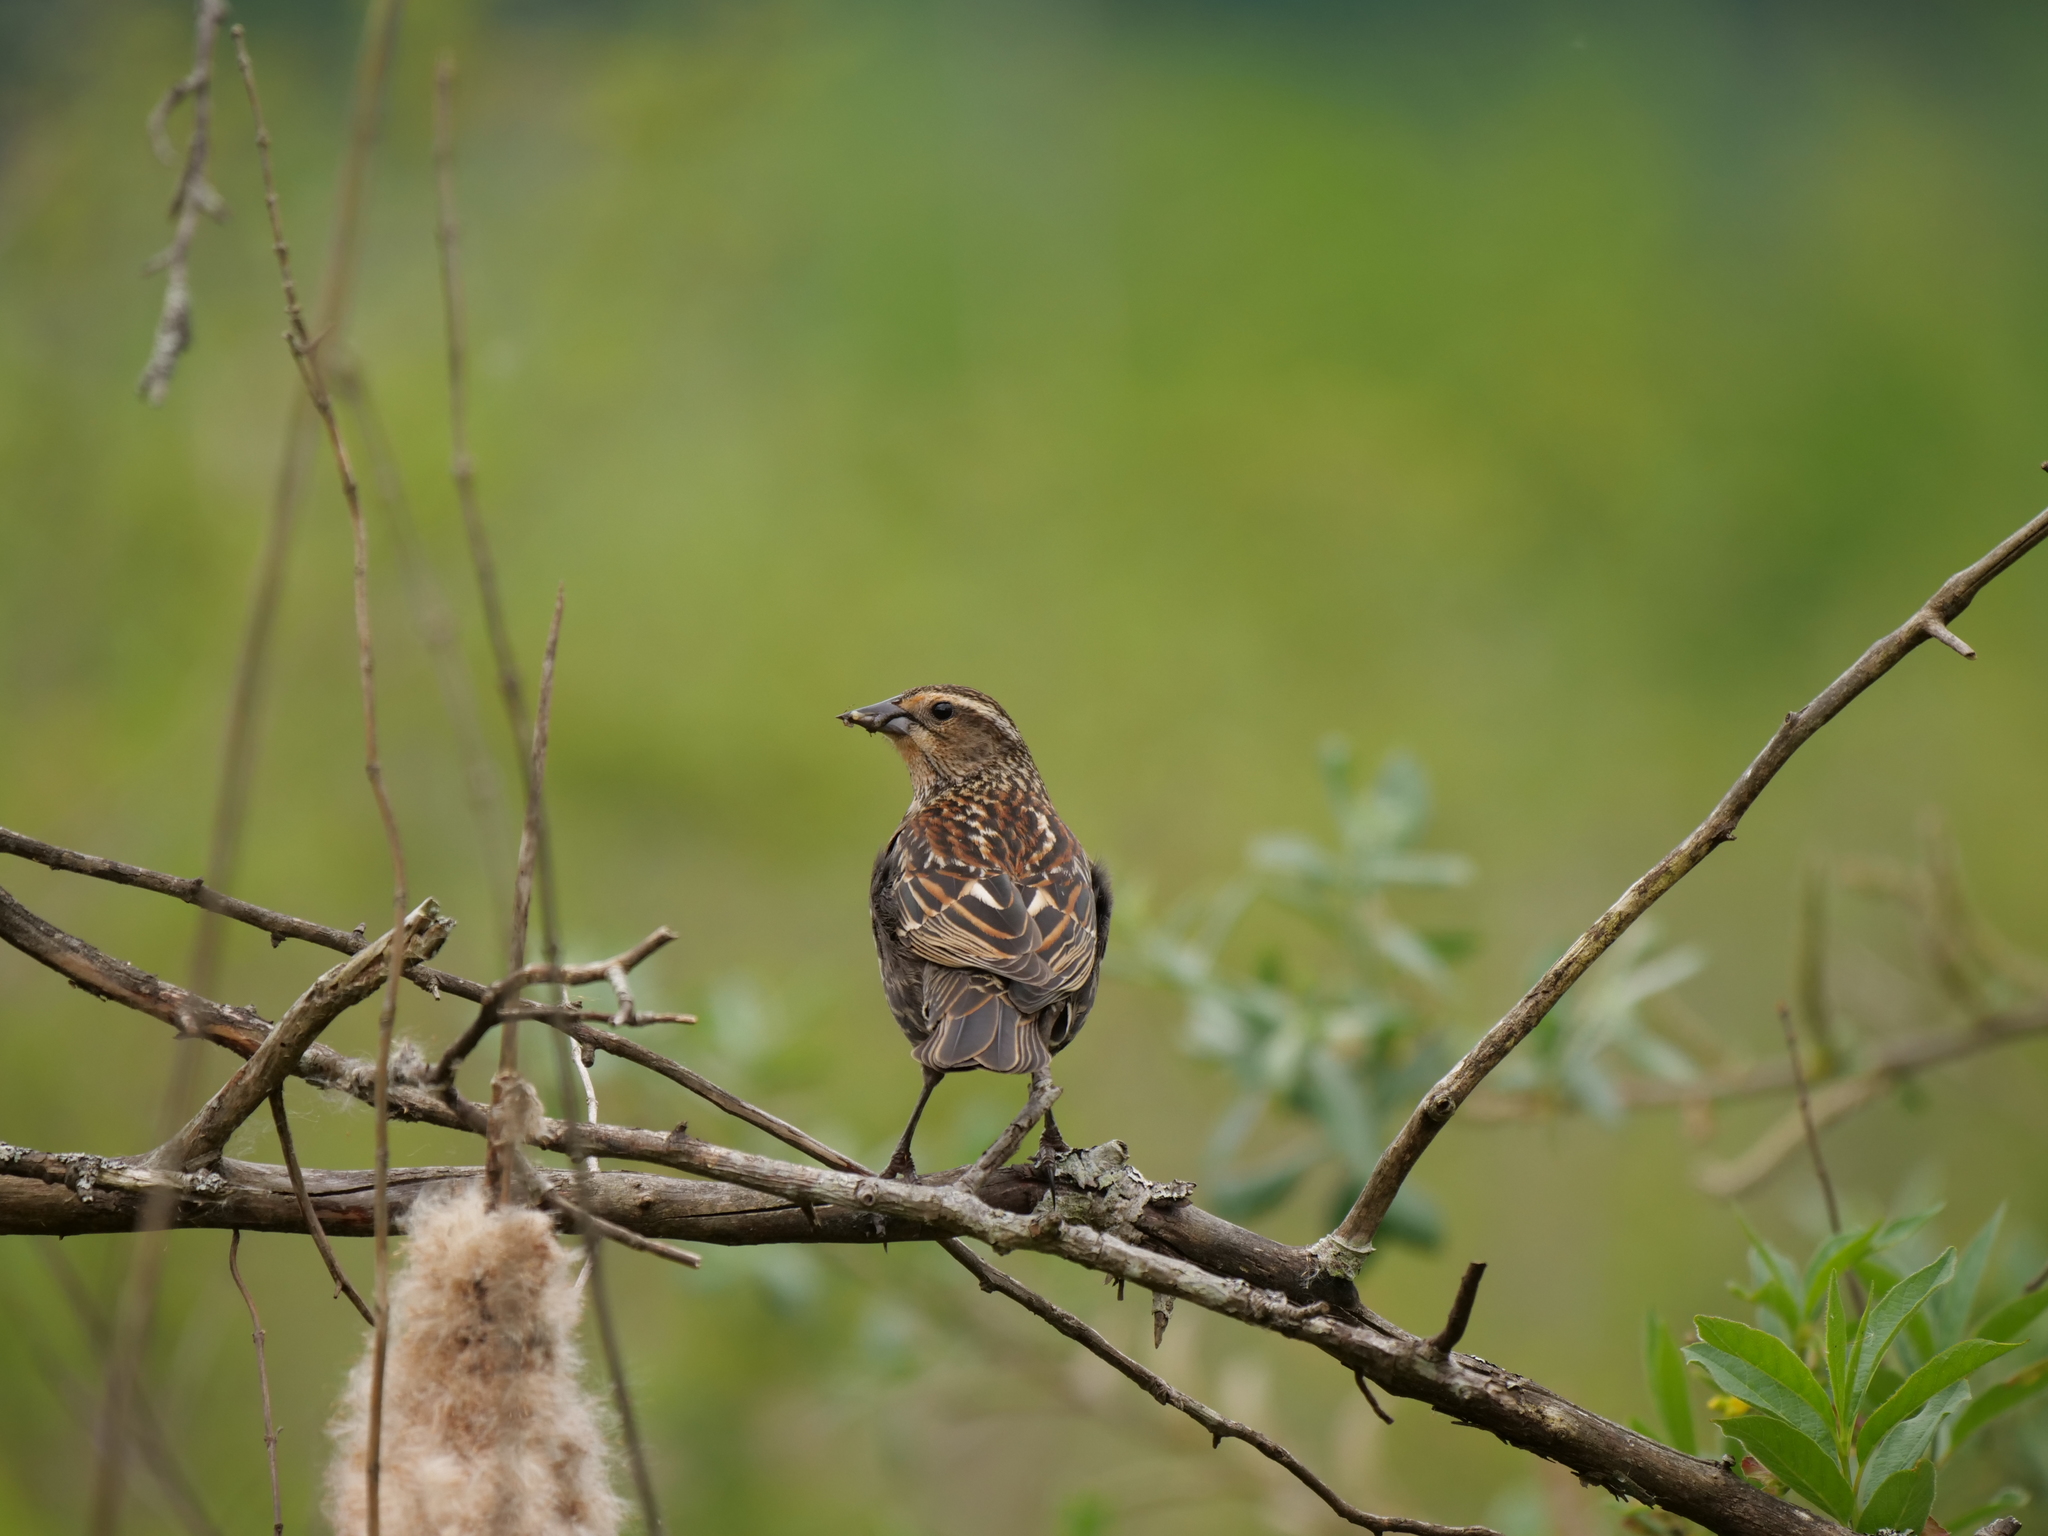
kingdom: Animalia
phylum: Chordata
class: Aves
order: Passeriformes
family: Icteridae
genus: Agelaius
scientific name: Agelaius phoeniceus
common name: Red-winged blackbird
